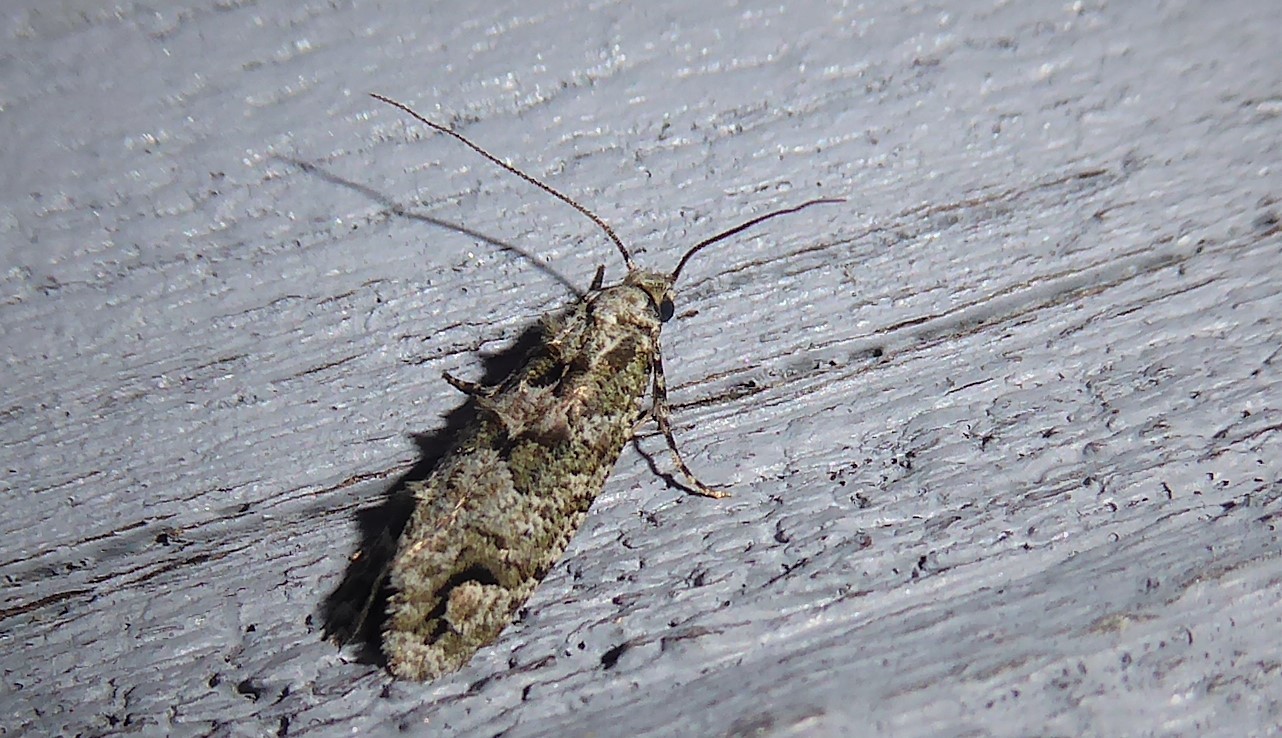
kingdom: Animalia
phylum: Arthropoda
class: Insecta
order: Lepidoptera
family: Tineidae
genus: Lysiphragma
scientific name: Lysiphragma howesii
